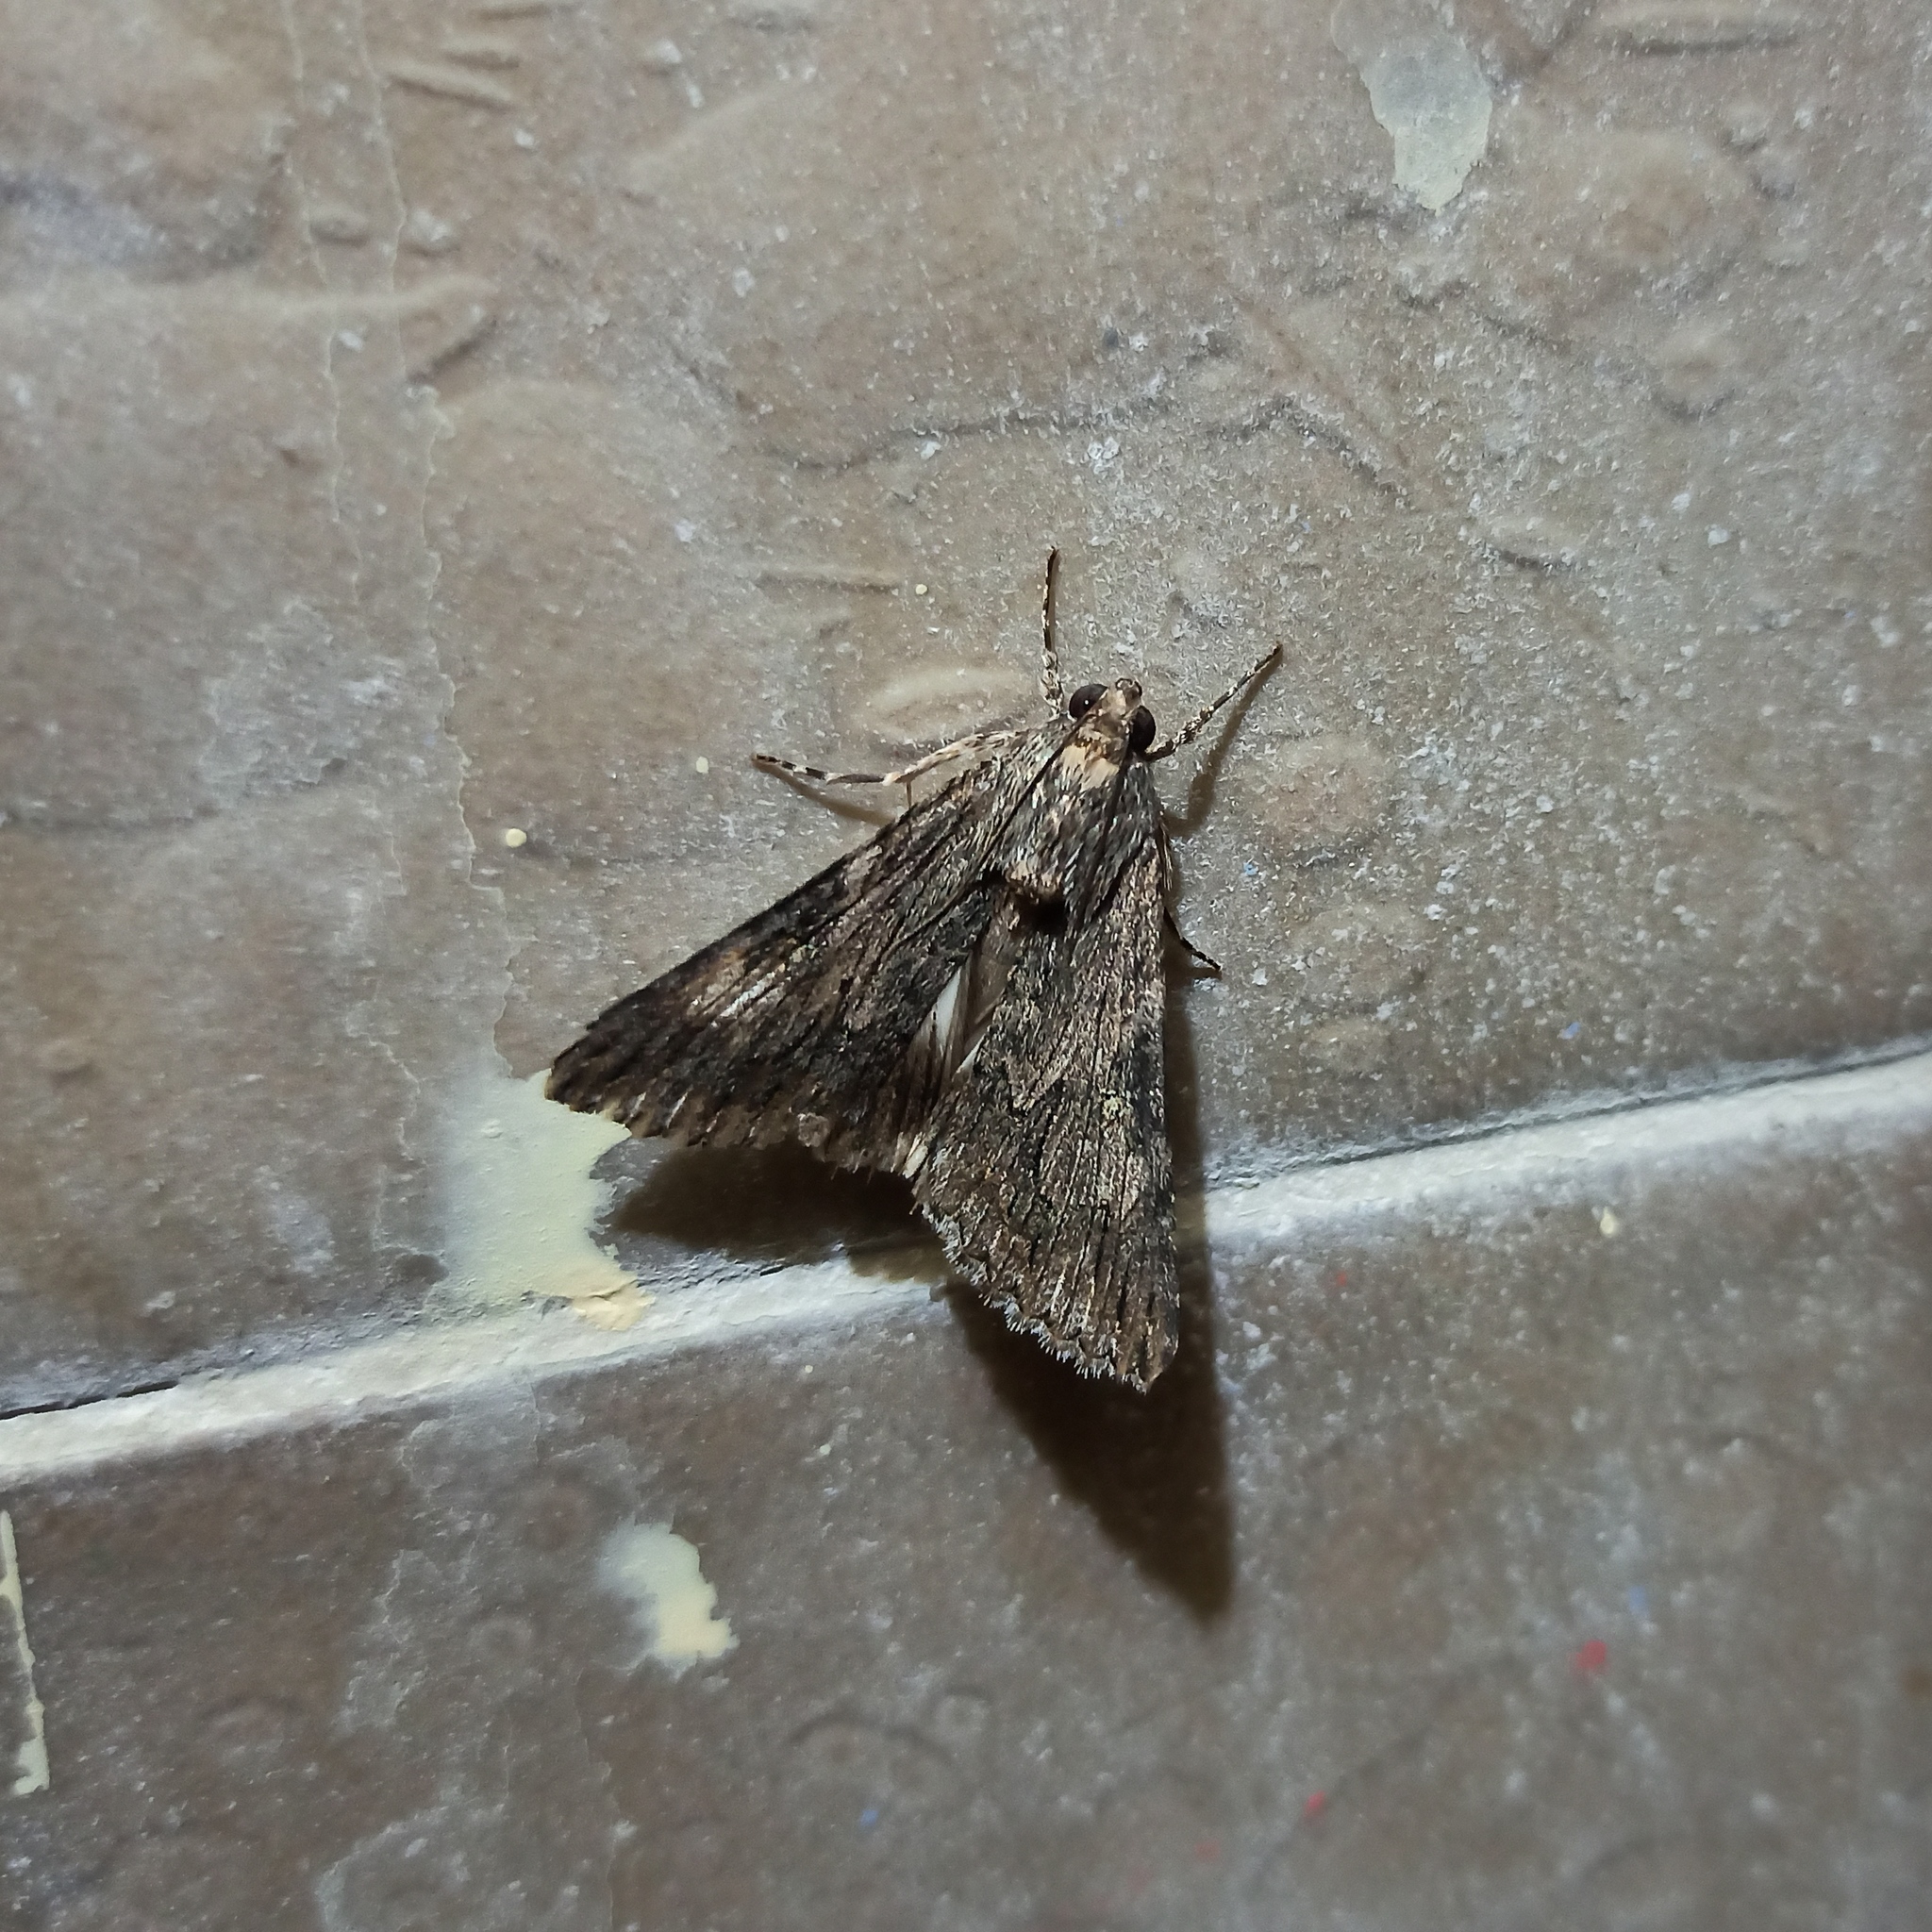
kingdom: Animalia
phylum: Arthropoda
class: Insecta
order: Lepidoptera
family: Erebidae
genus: Melipotis
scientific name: Melipotis jucunda
